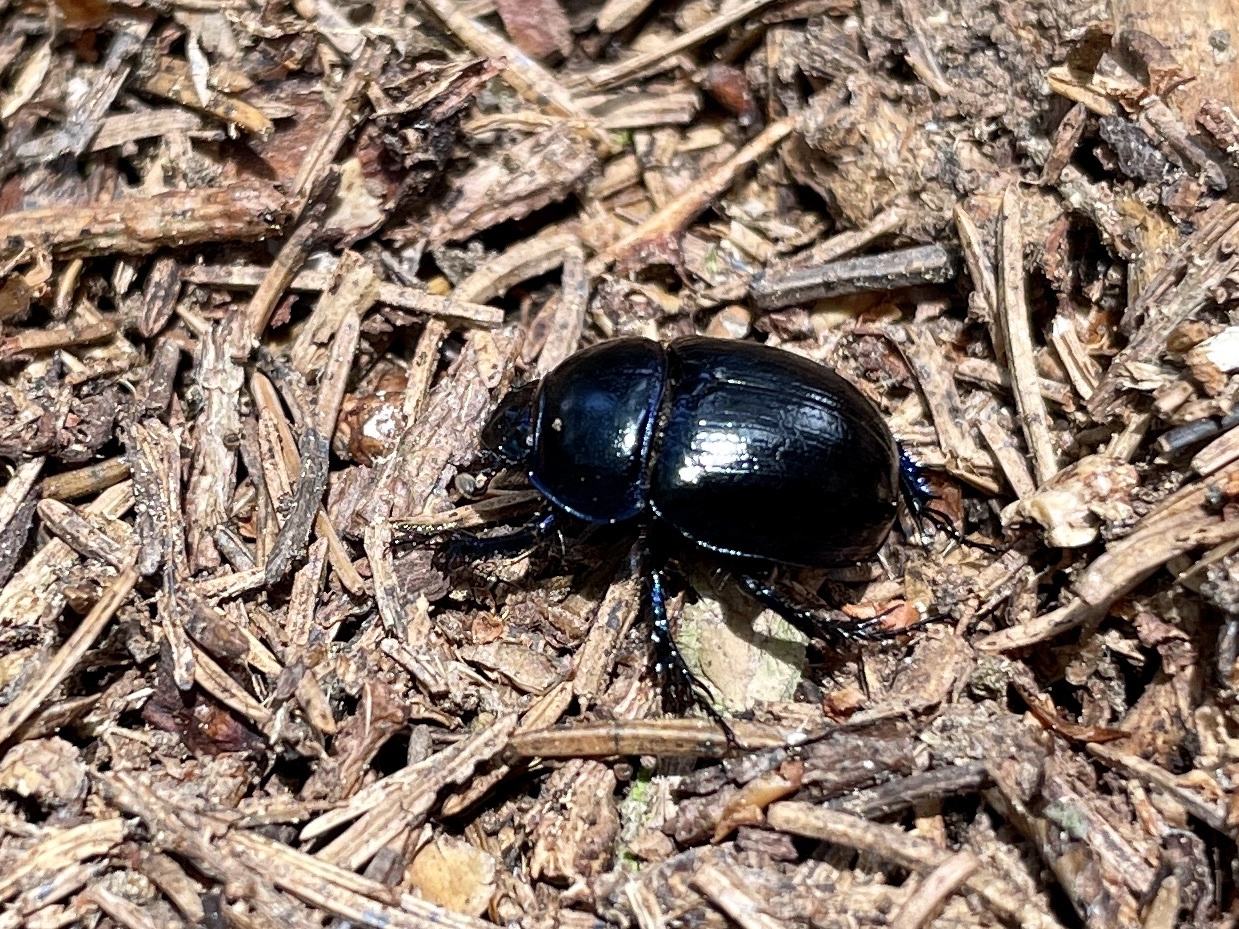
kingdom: Animalia
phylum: Arthropoda
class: Insecta
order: Coleoptera
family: Geotrupidae
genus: Anoplotrupes
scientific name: Anoplotrupes stercorosus
